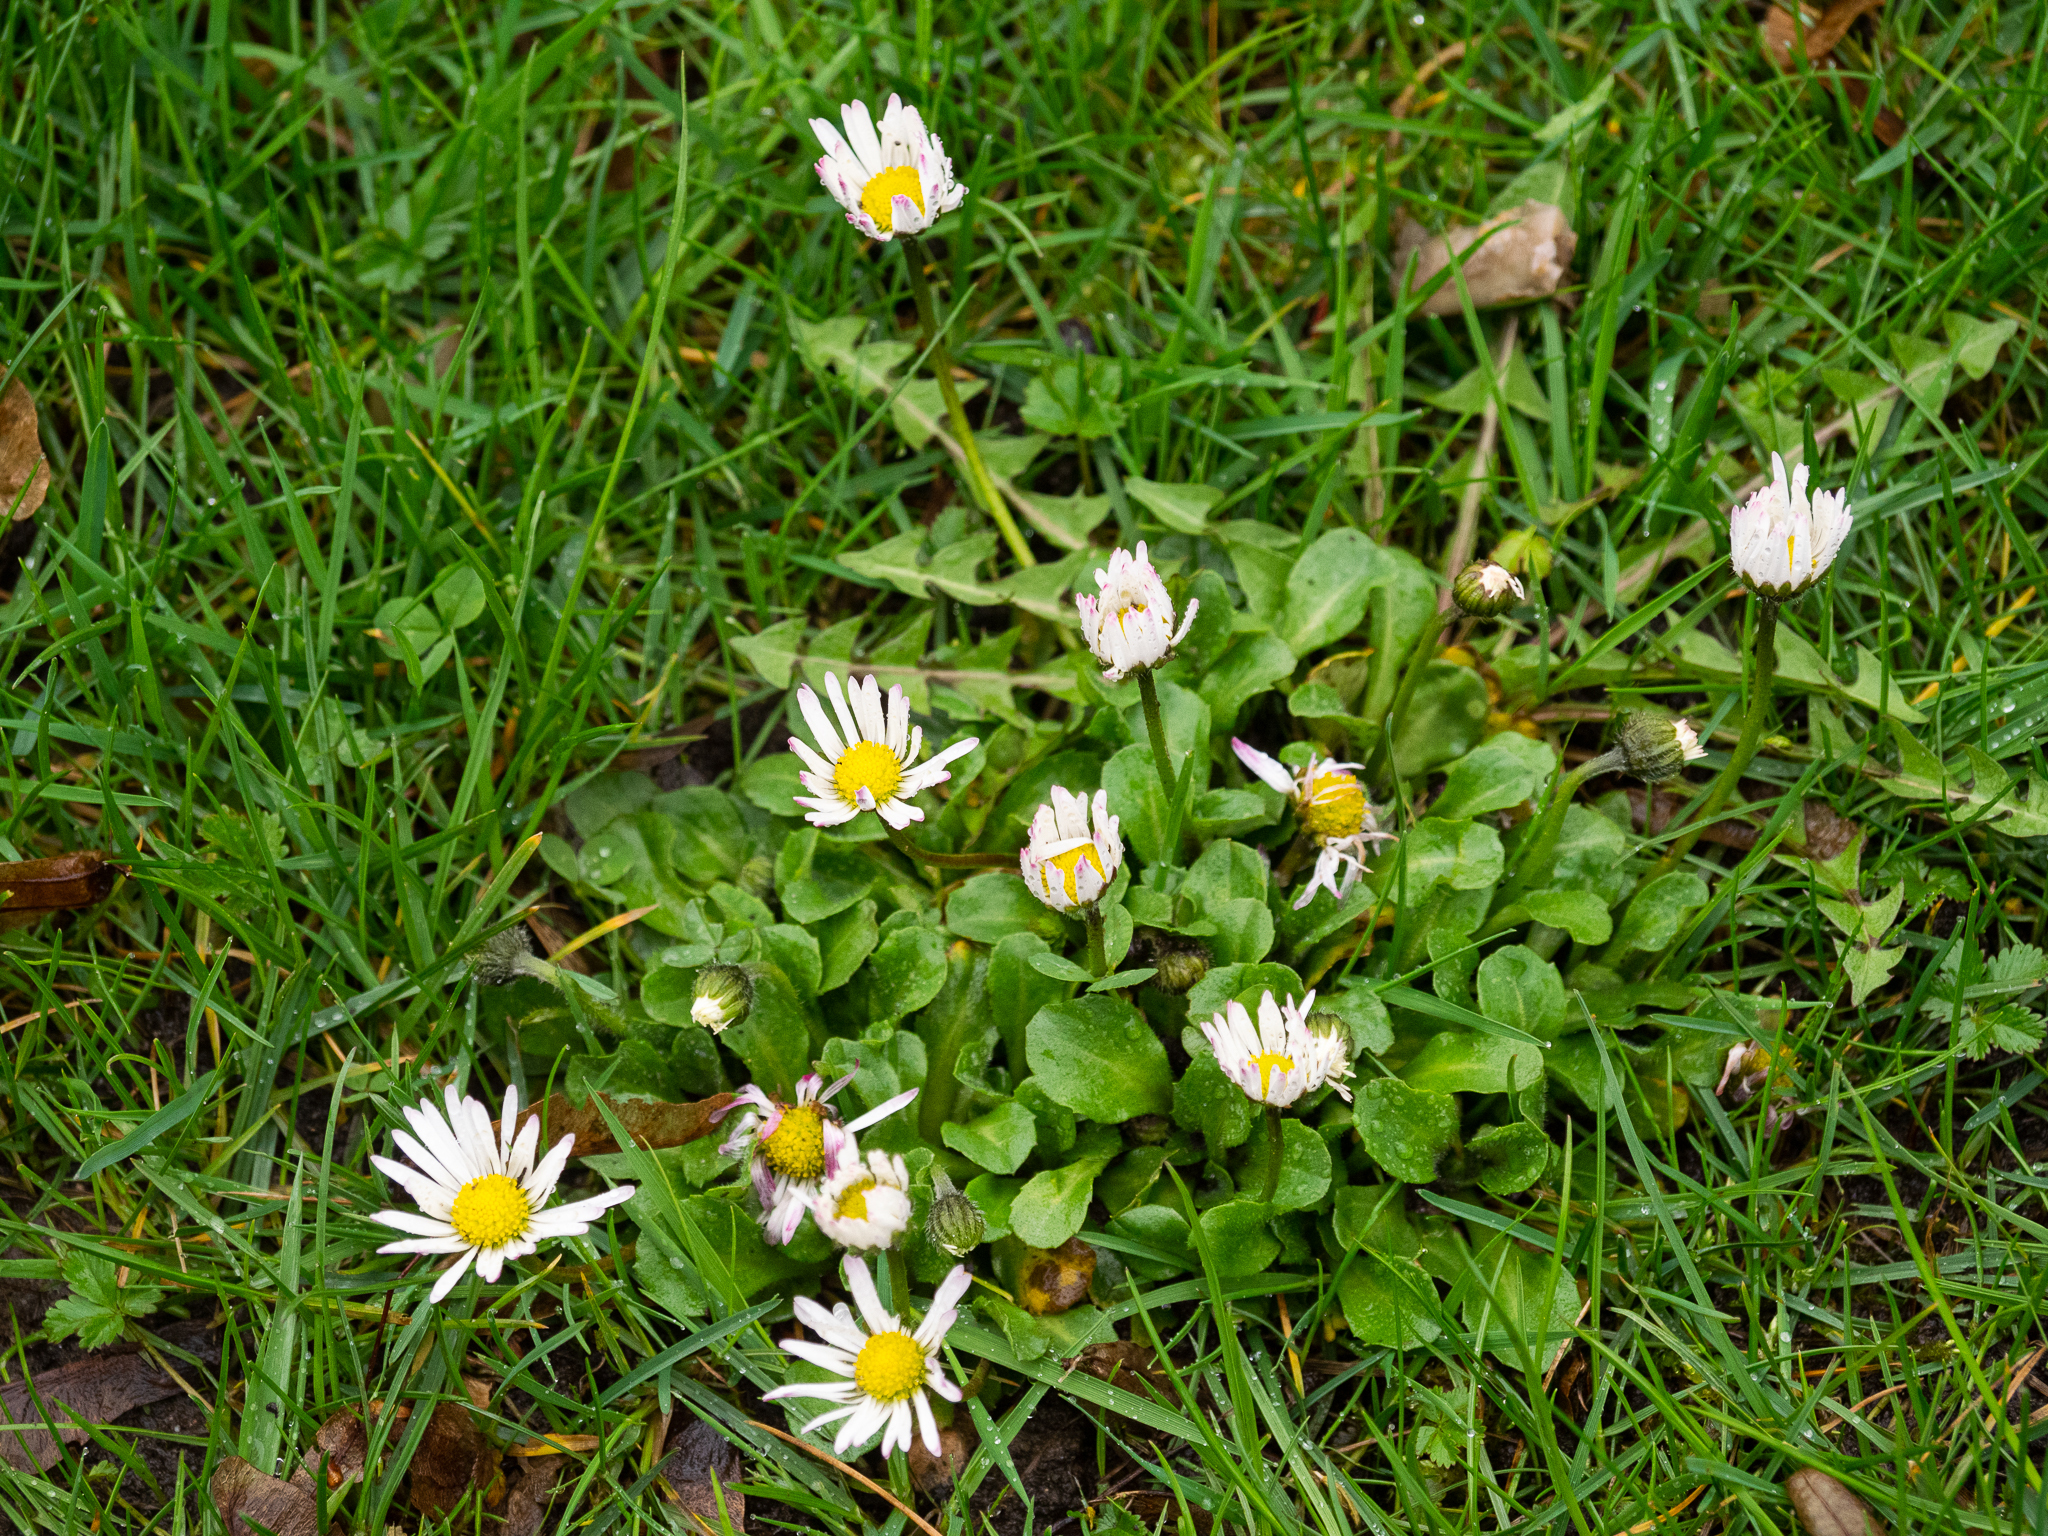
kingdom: Plantae
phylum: Tracheophyta
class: Magnoliopsida
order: Asterales
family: Asteraceae
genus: Bellis
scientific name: Bellis perennis
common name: Lawndaisy
